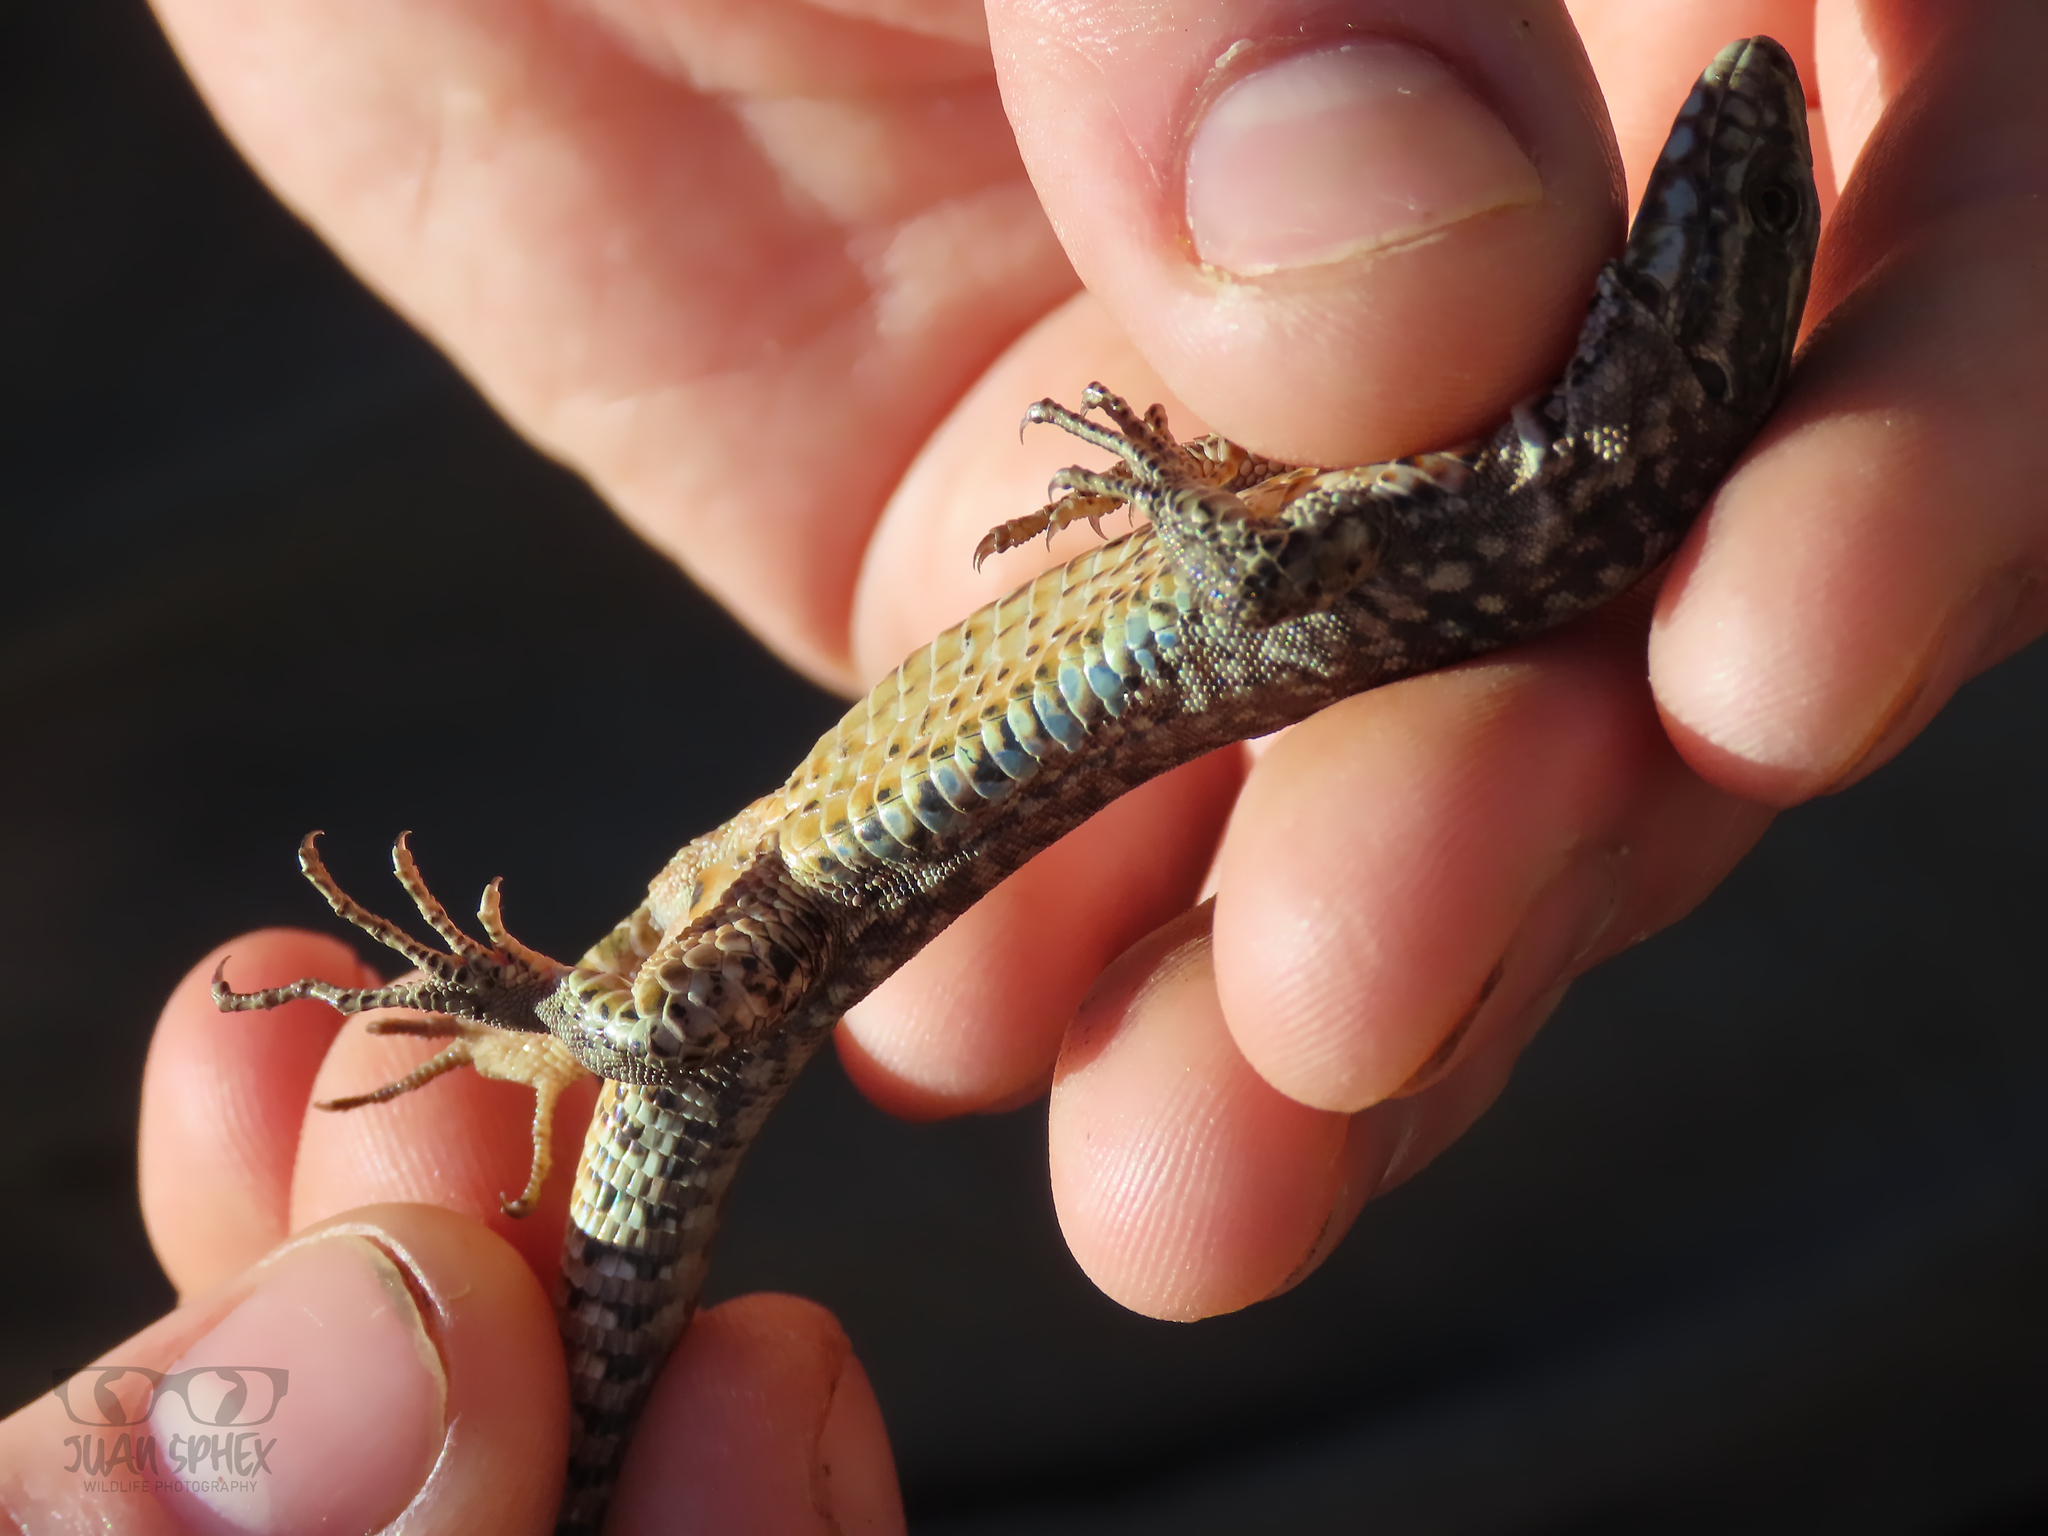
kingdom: Animalia
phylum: Chordata
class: Squamata
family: Lacertidae
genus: Podarcis
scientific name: Podarcis muralis
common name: Common wall lizard
